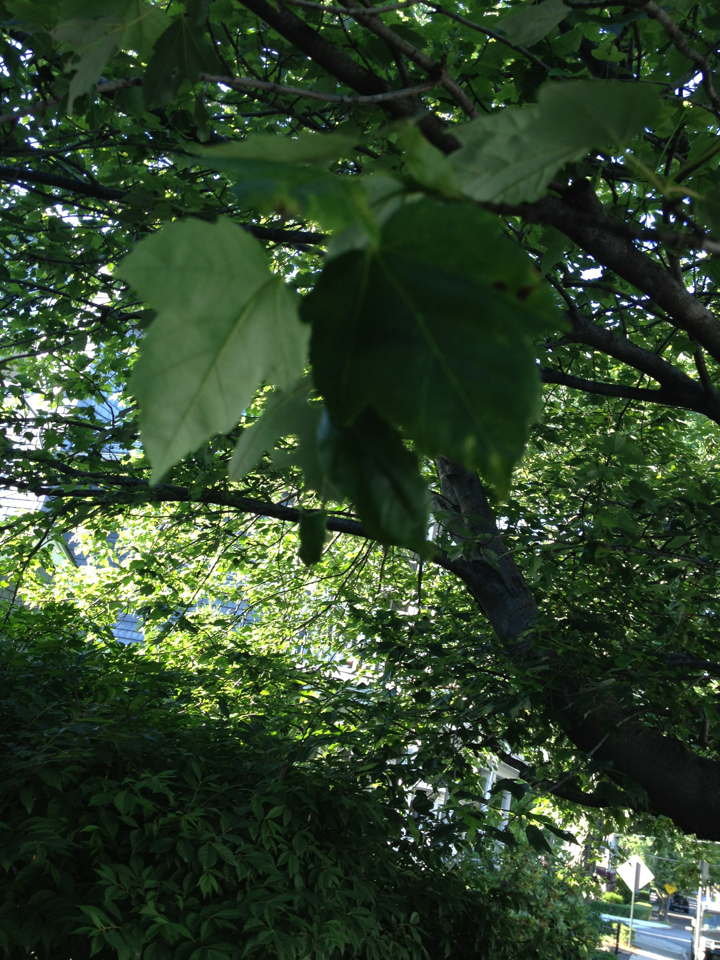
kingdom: Plantae
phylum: Tracheophyta
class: Magnoliopsida
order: Sapindales
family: Sapindaceae
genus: Acer
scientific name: Acer rubrum
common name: Red maple
